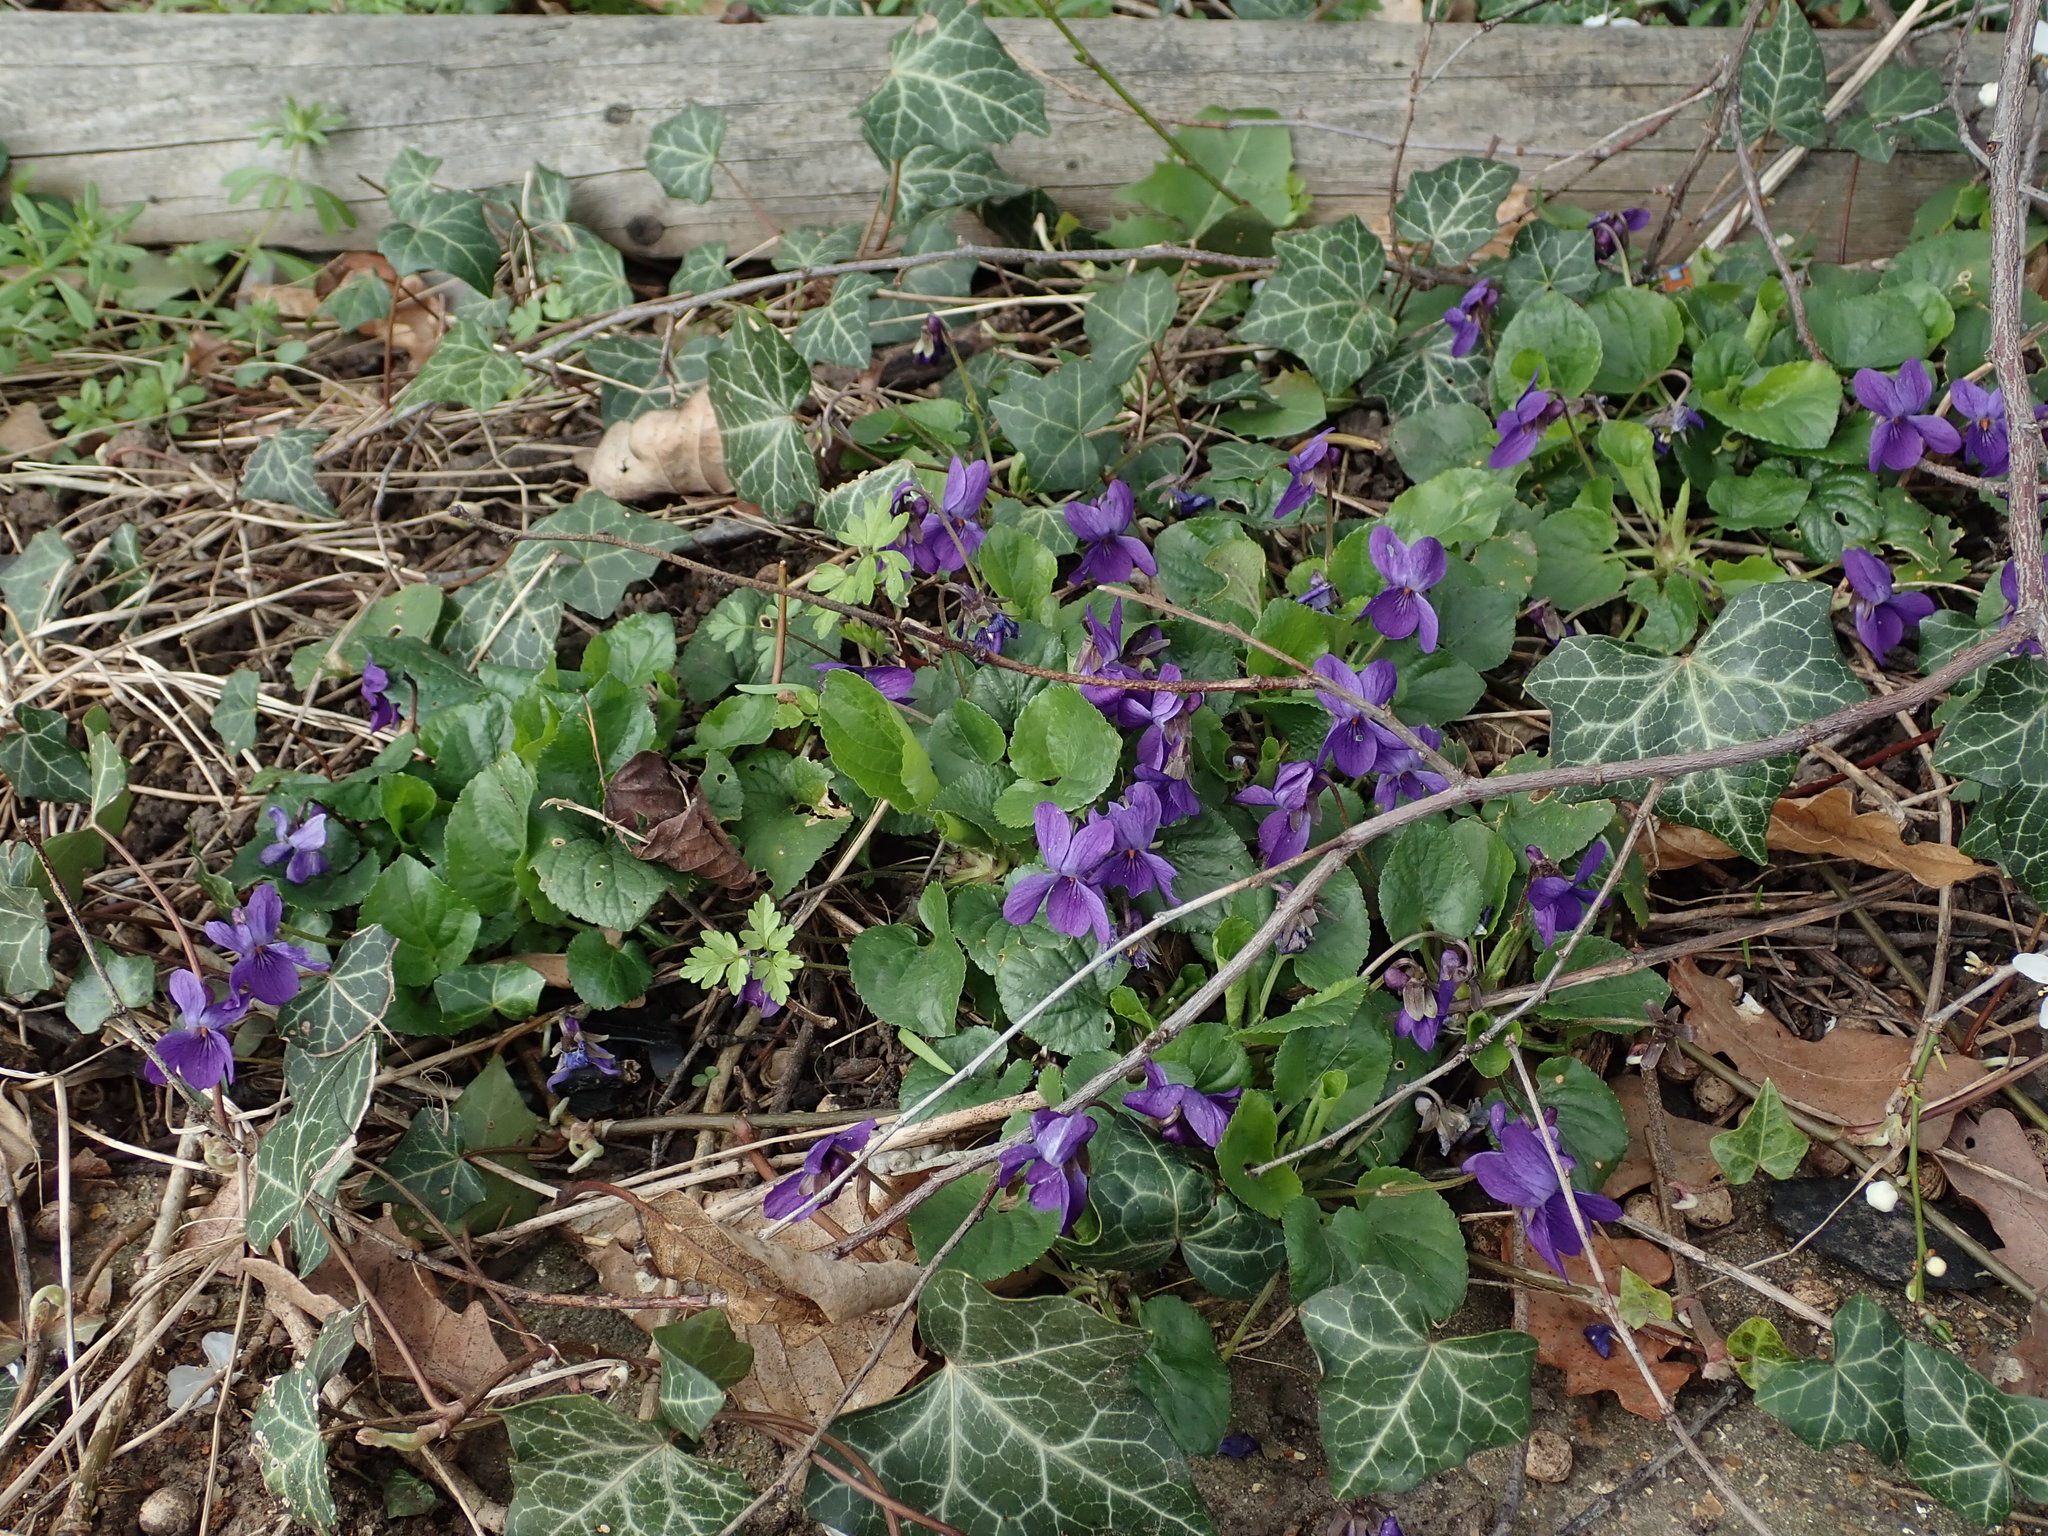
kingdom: Plantae
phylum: Tracheophyta
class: Magnoliopsida
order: Malpighiales
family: Violaceae
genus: Viola
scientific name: Viola odorata
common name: Sweet violet
